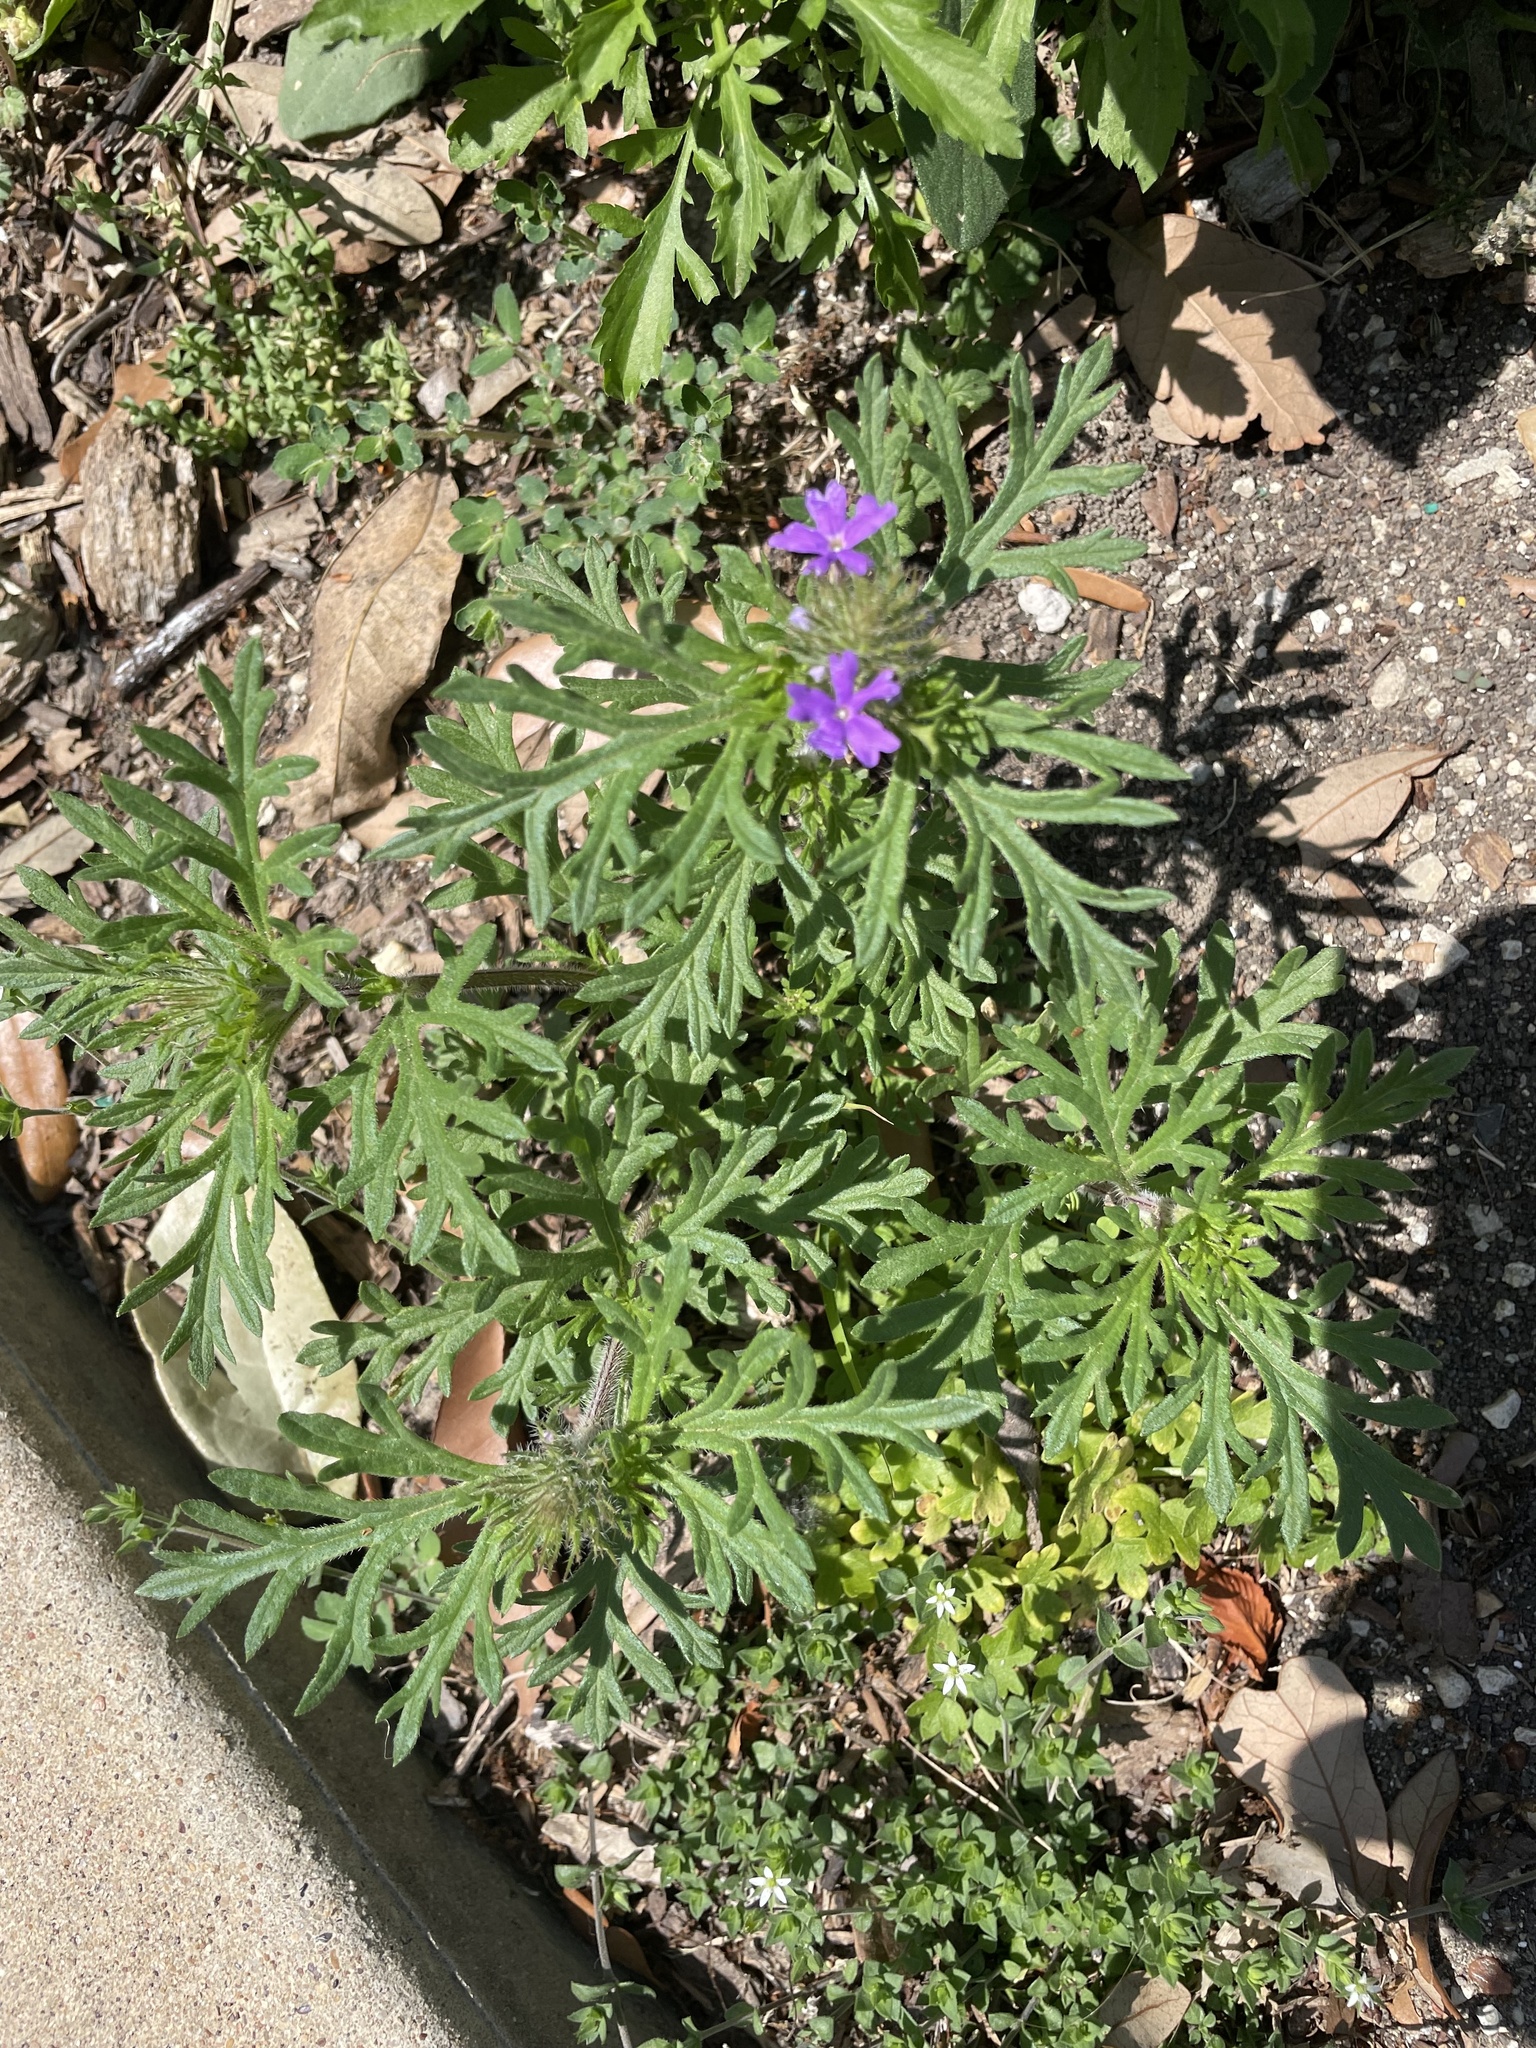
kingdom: Plantae
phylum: Tracheophyta
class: Magnoliopsida
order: Lamiales
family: Verbenaceae
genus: Verbena
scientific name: Verbena bipinnatifida
